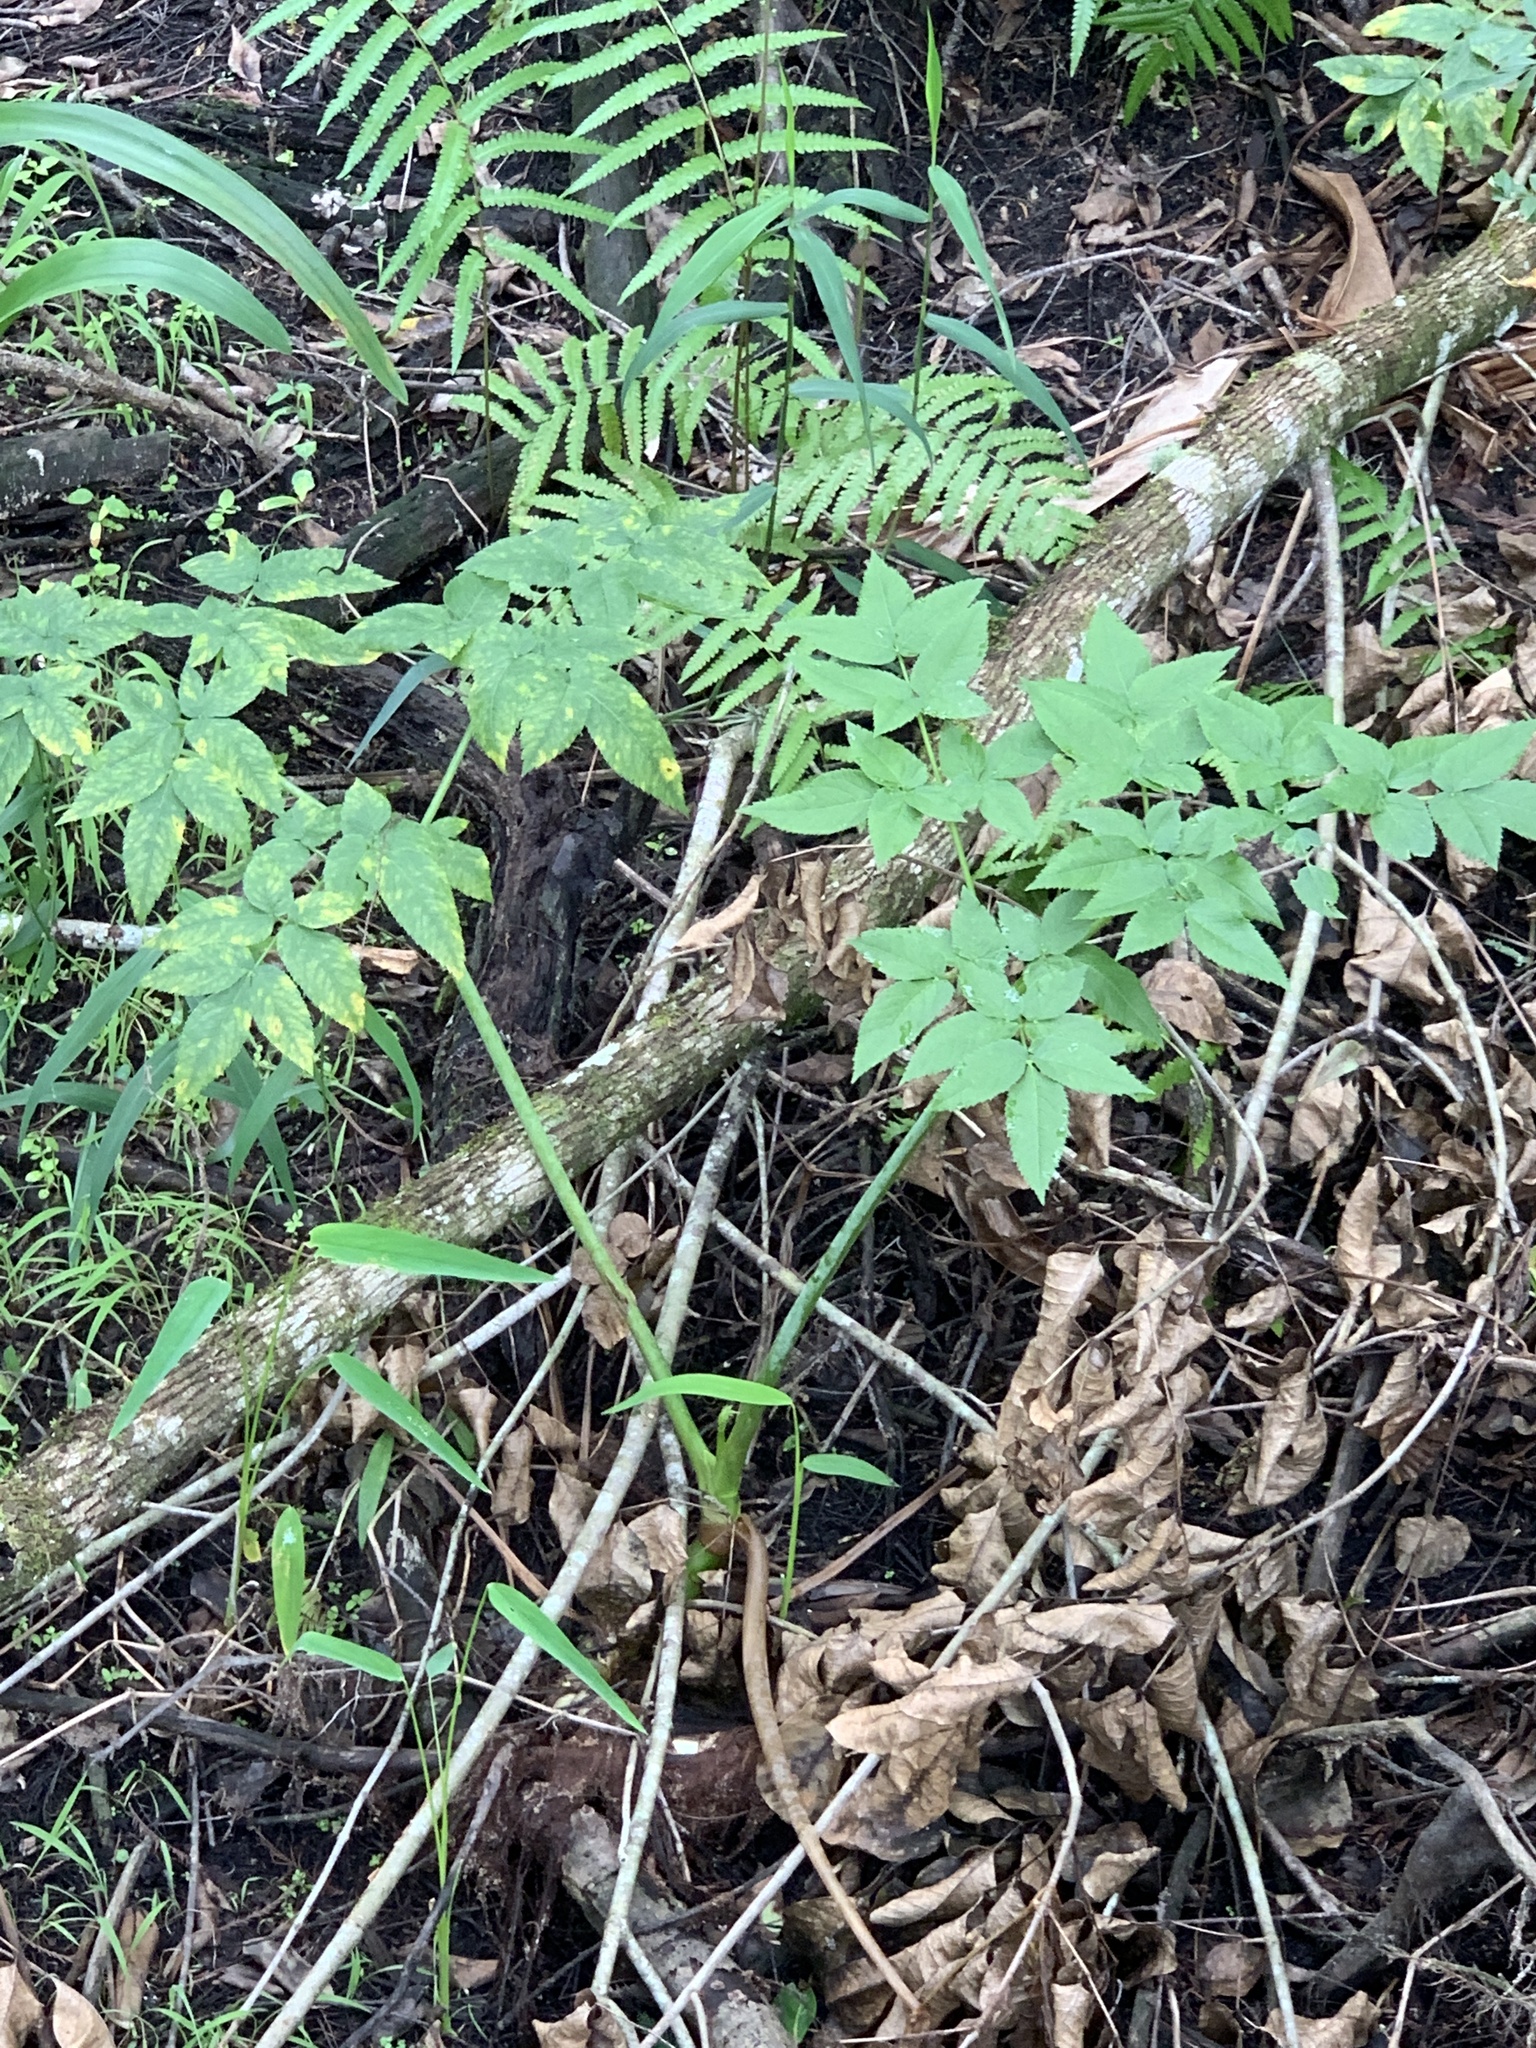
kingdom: Plantae
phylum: Tracheophyta
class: Magnoliopsida
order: Apiales
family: Apiaceae
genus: Cicuta
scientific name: Cicuta douglasii
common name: Western water-hemlock
